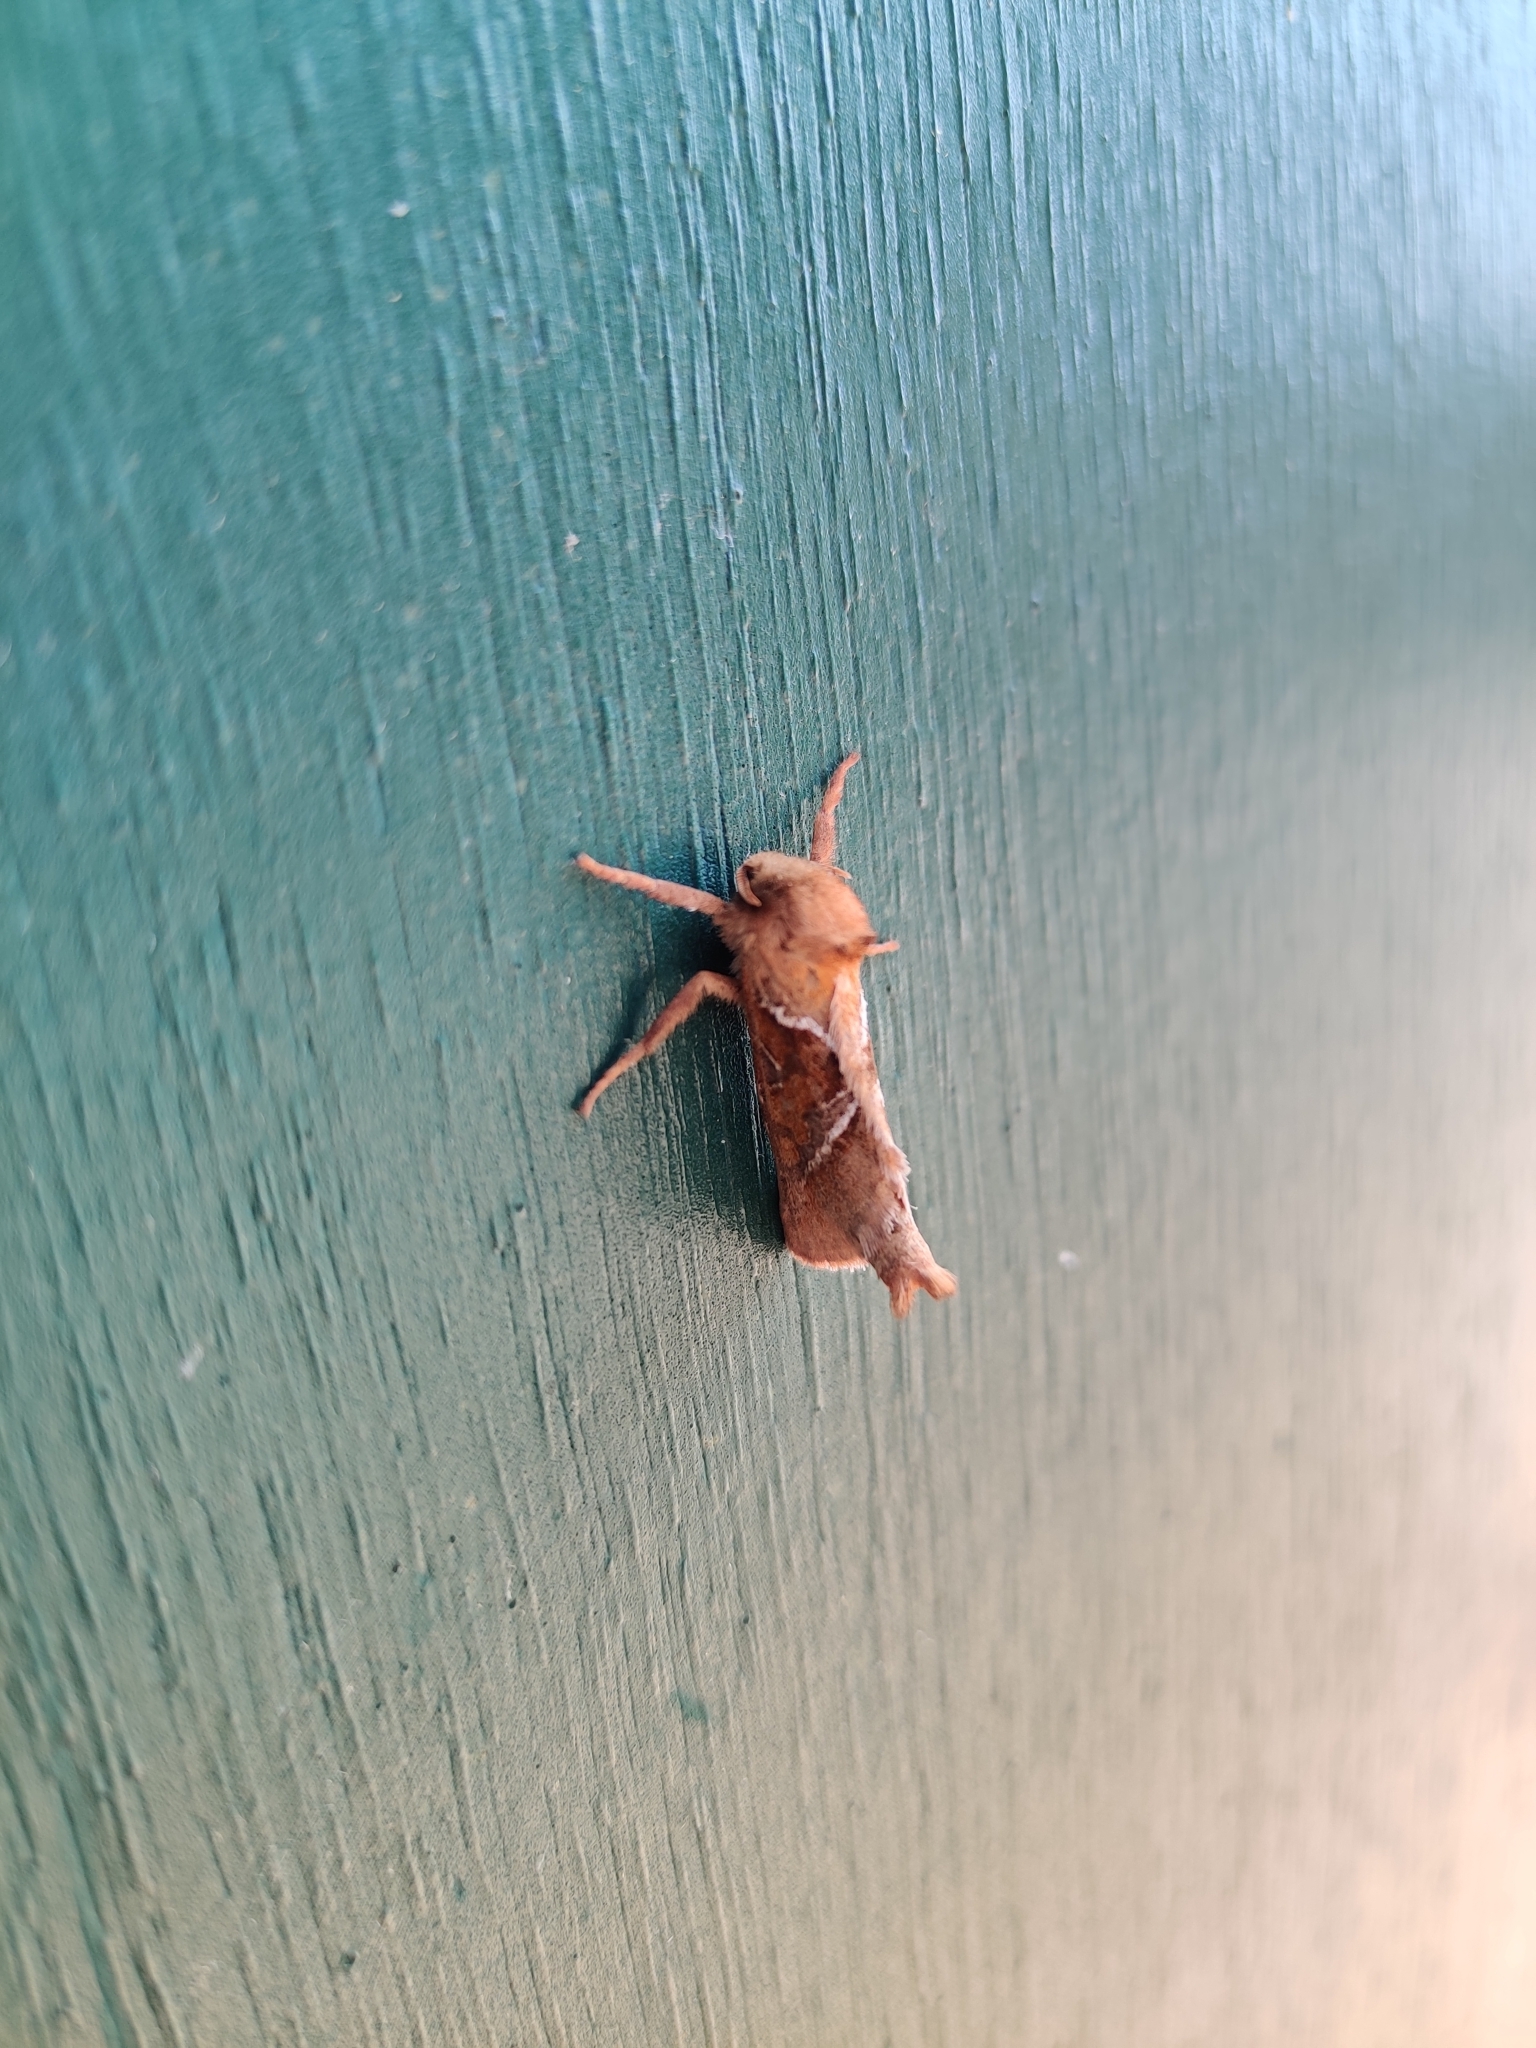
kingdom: Animalia
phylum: Arthropoda
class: Insecta
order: Lepidoptera
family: Hepialidae
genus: Triodia
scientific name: Triodia sylvina
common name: Orange swift
